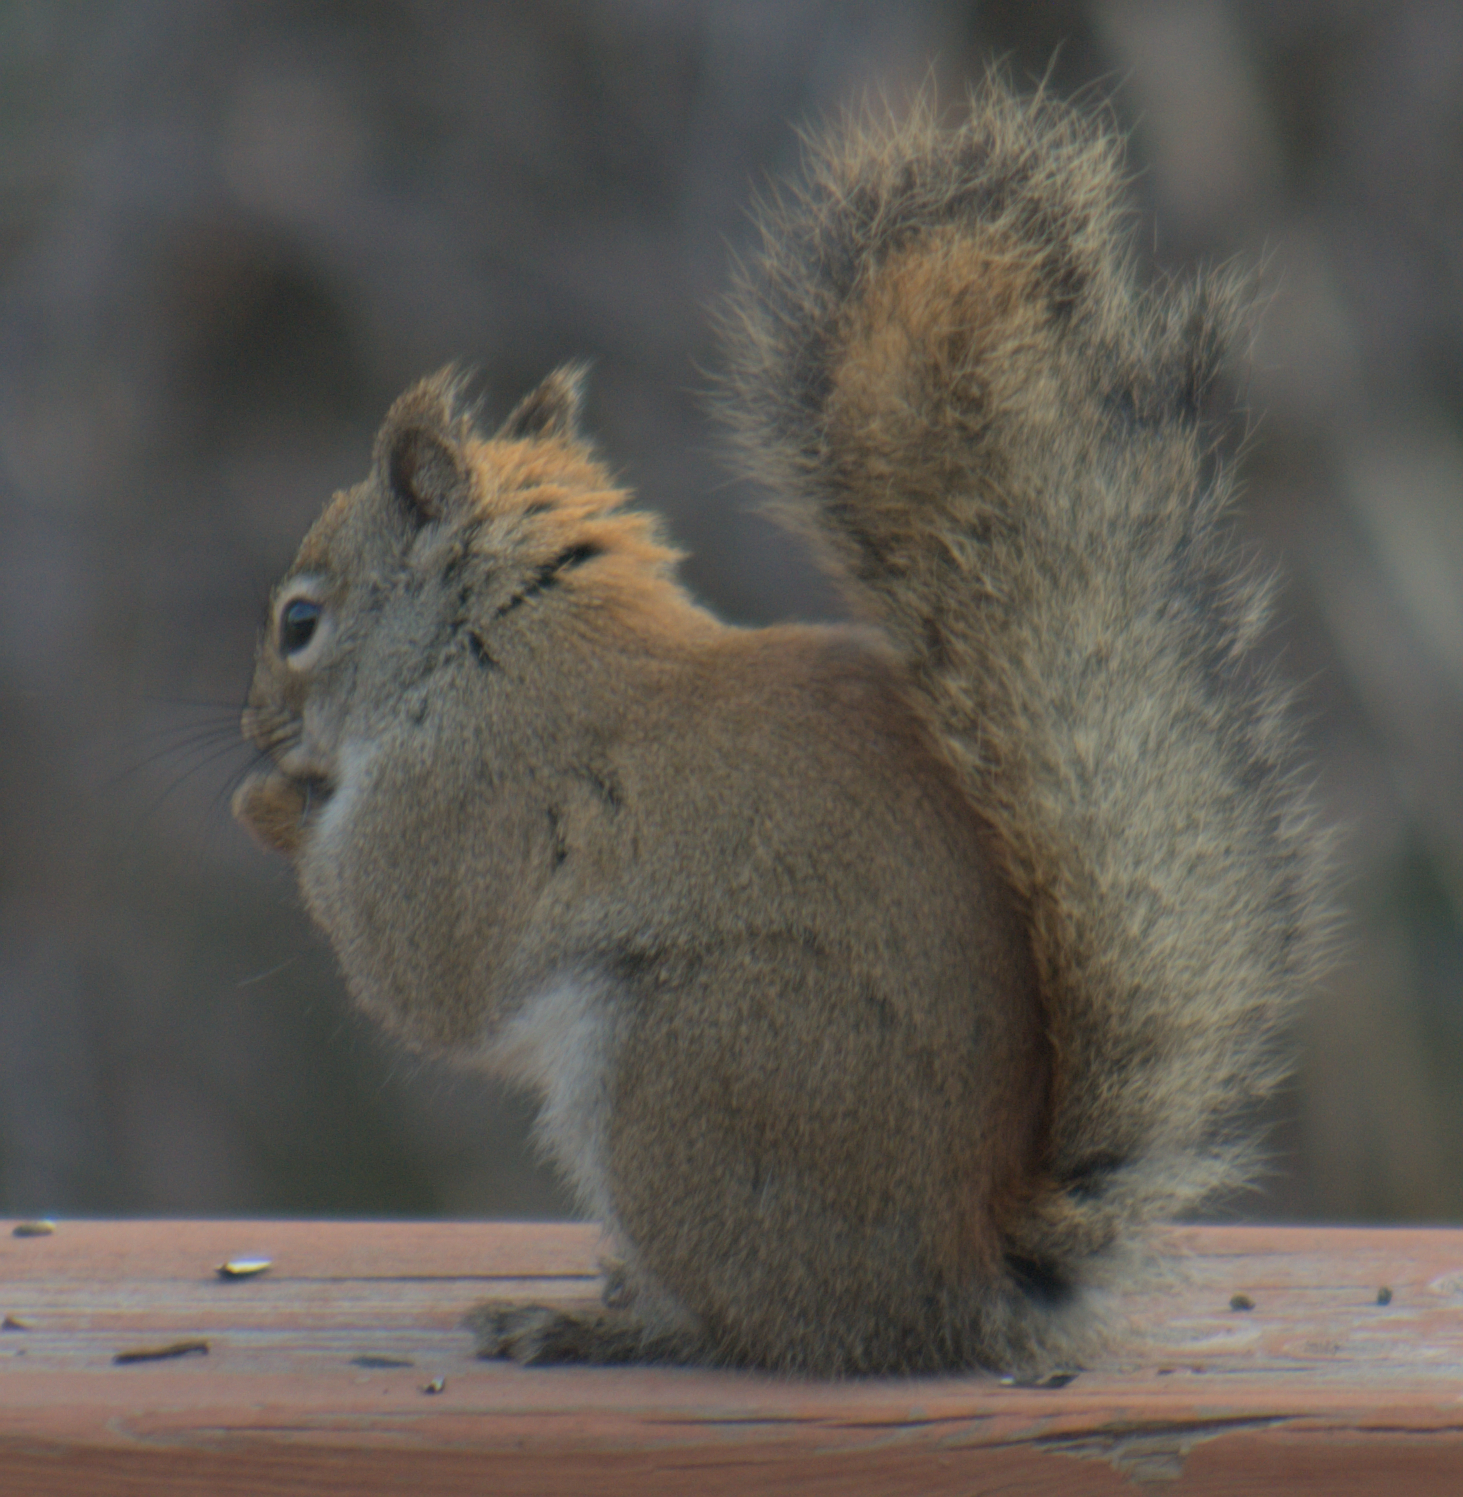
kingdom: Animalia
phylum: Chordata
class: Mammalia
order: Rodentia
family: Sciuridae
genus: Tamiasciurus
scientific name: Tamiasciurus hudsonicus
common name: Red squirrel
